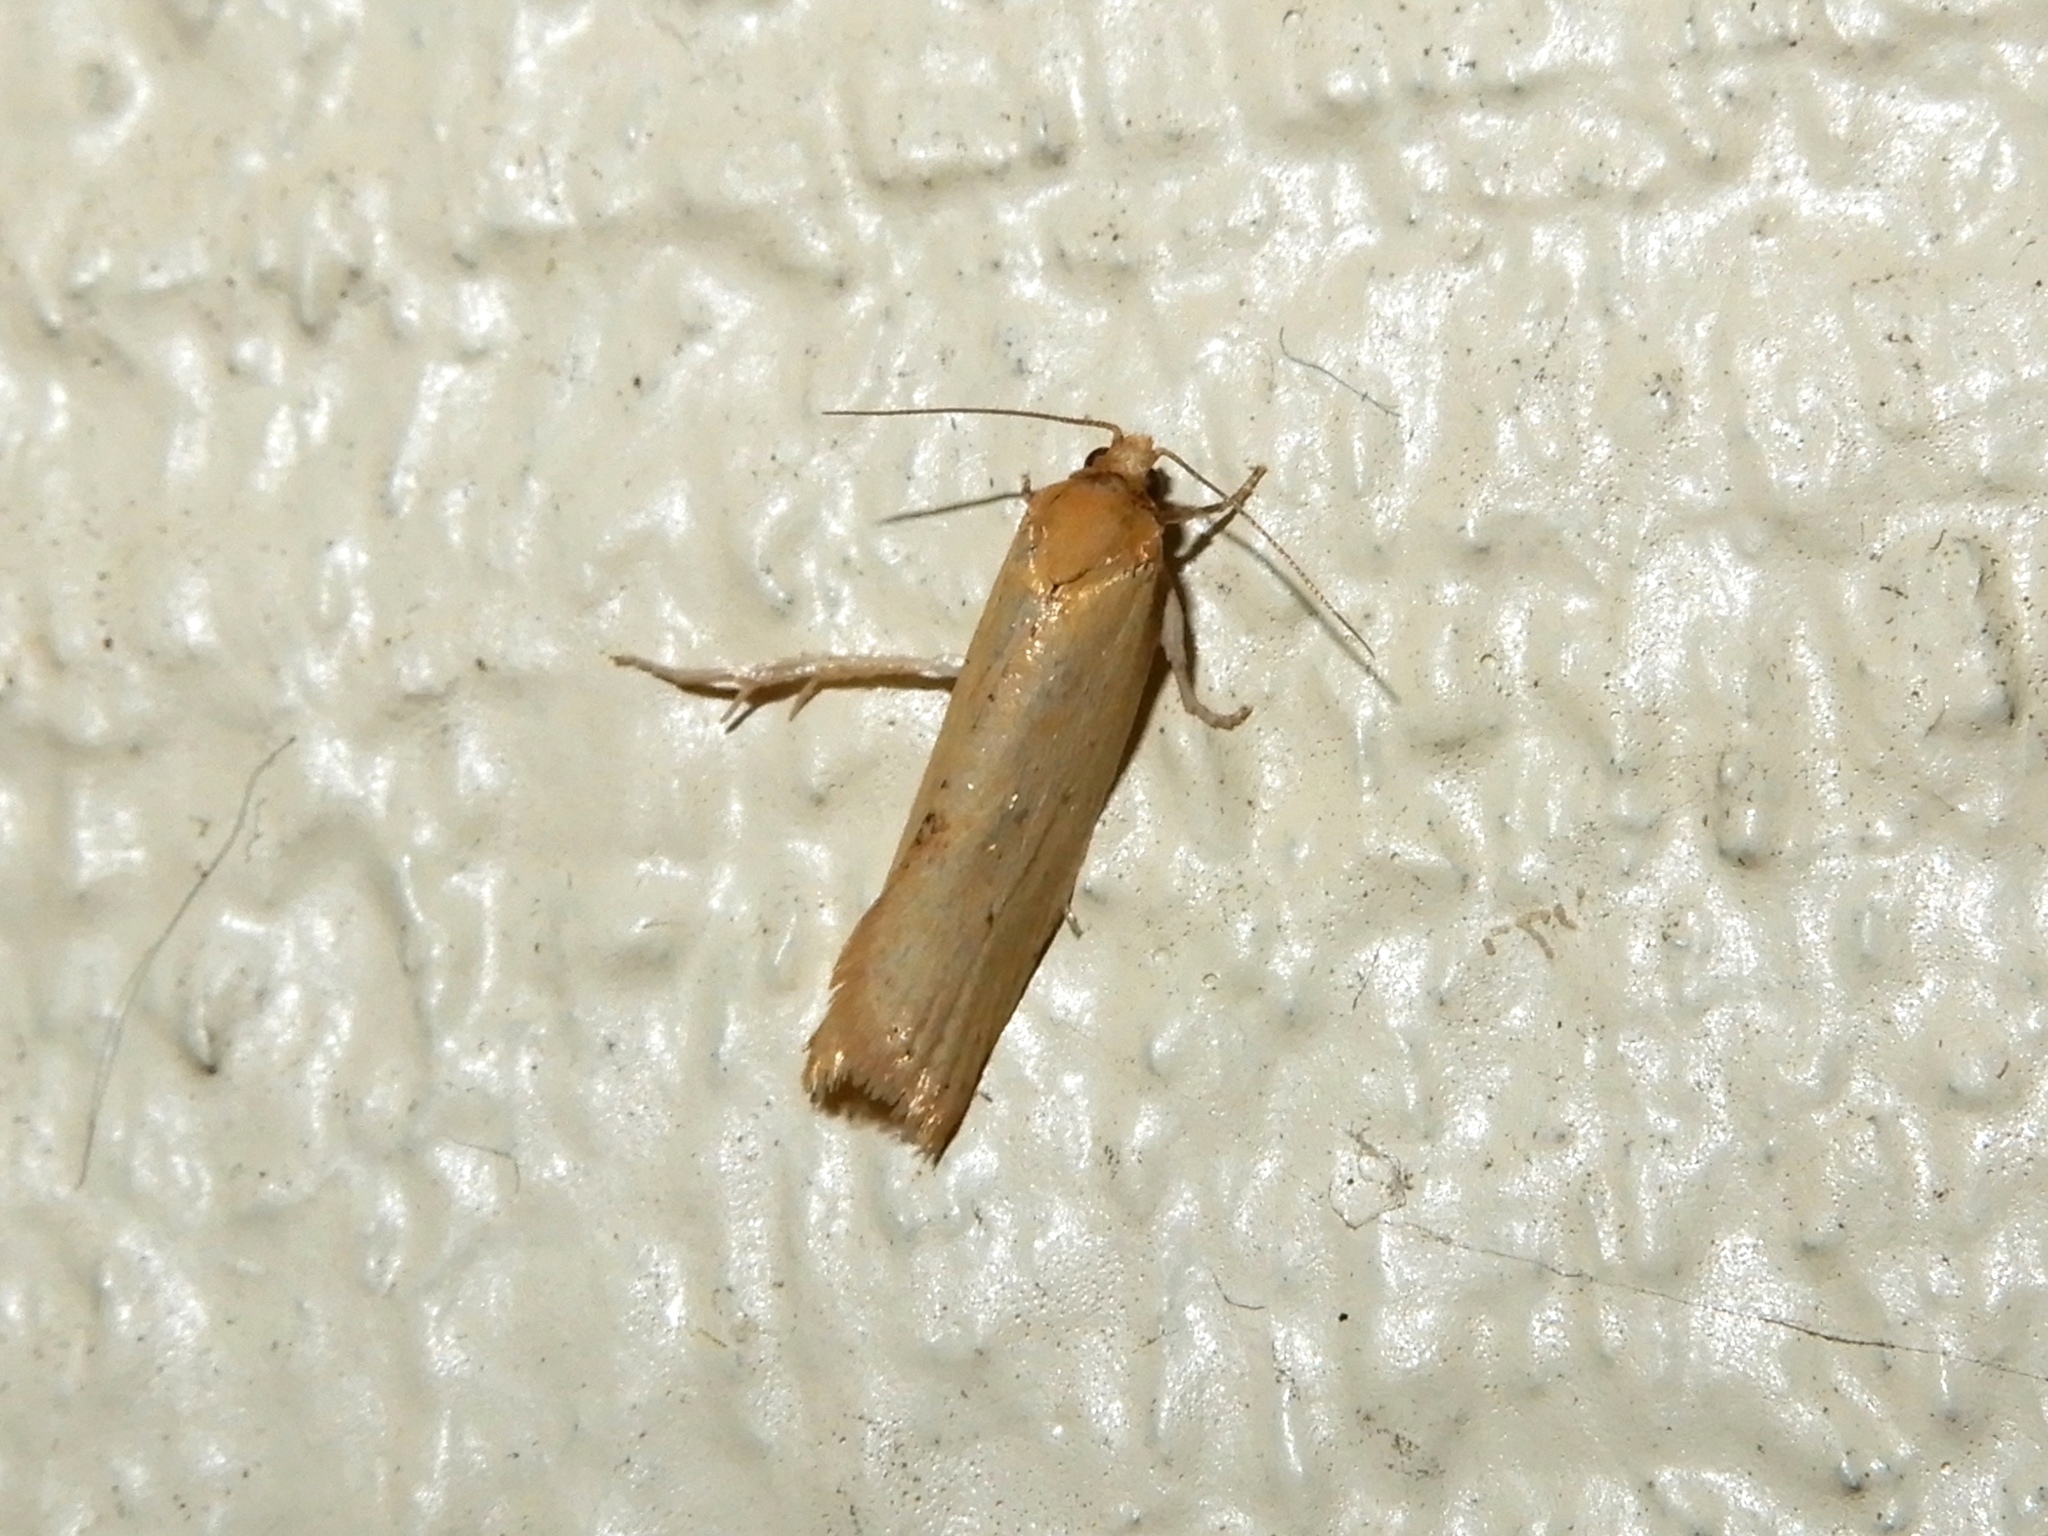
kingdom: Animalia
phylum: Arthropoda
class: Insecta
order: Lepidoptera
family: Tortricidae
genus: Clepsis
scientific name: Clepsis
